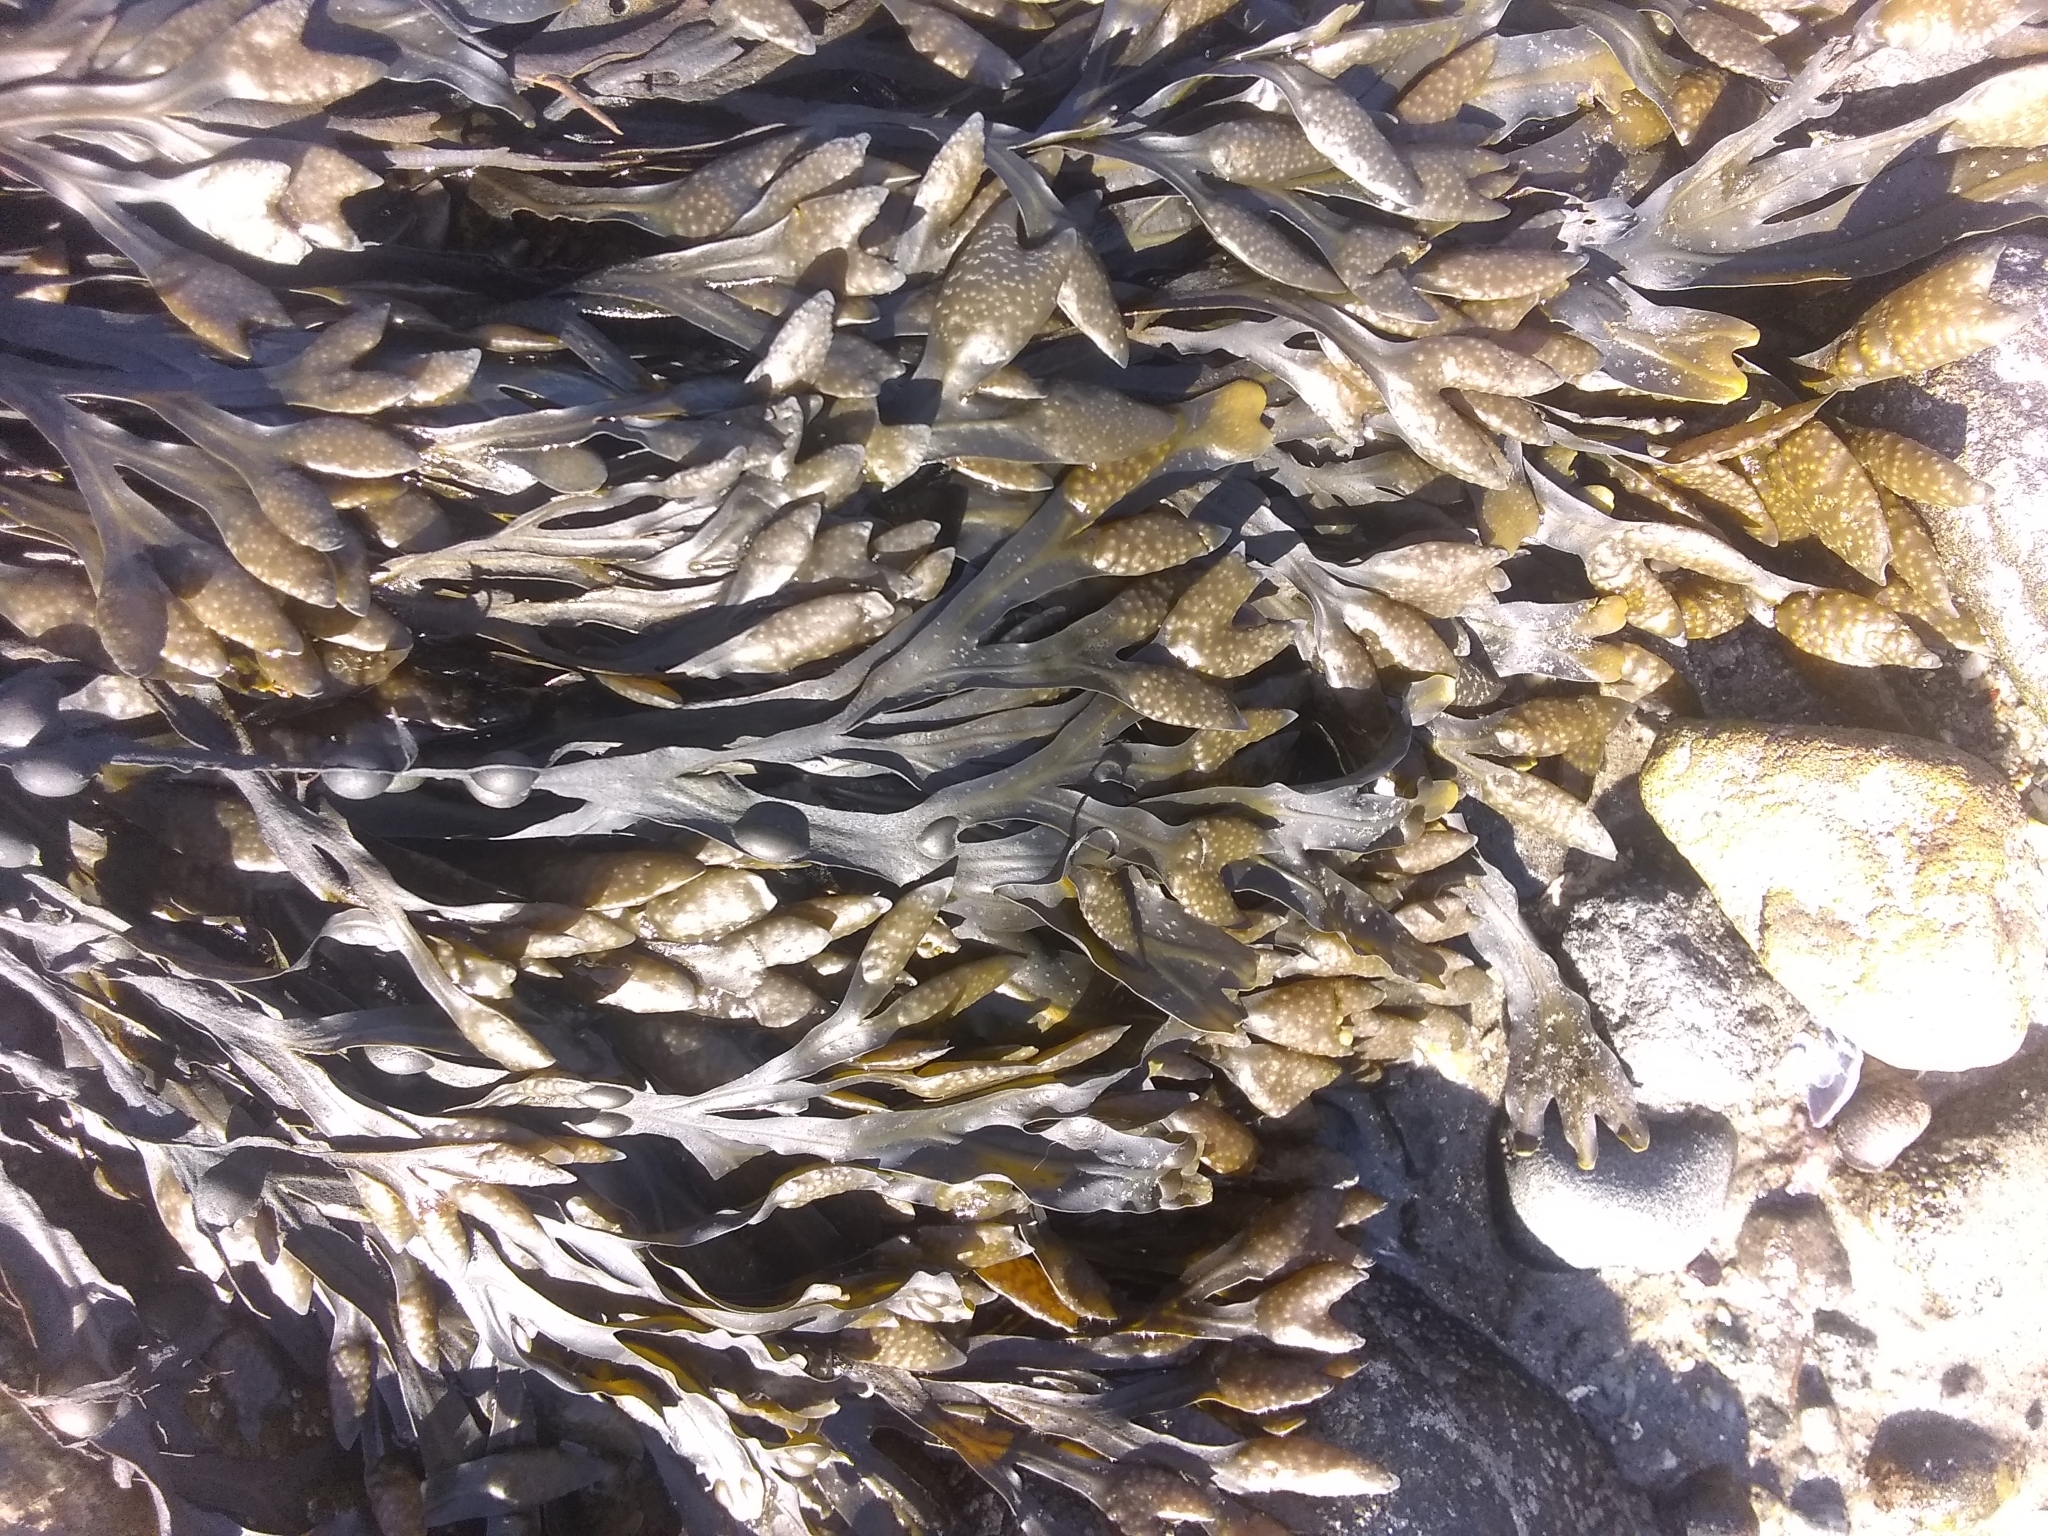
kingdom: Chromista
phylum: Ochrophyta
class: Phaeophyceae
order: Fucales
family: Fucaceae
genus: Fucus
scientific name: Fucus vesiculosus
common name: Bladder wrack
